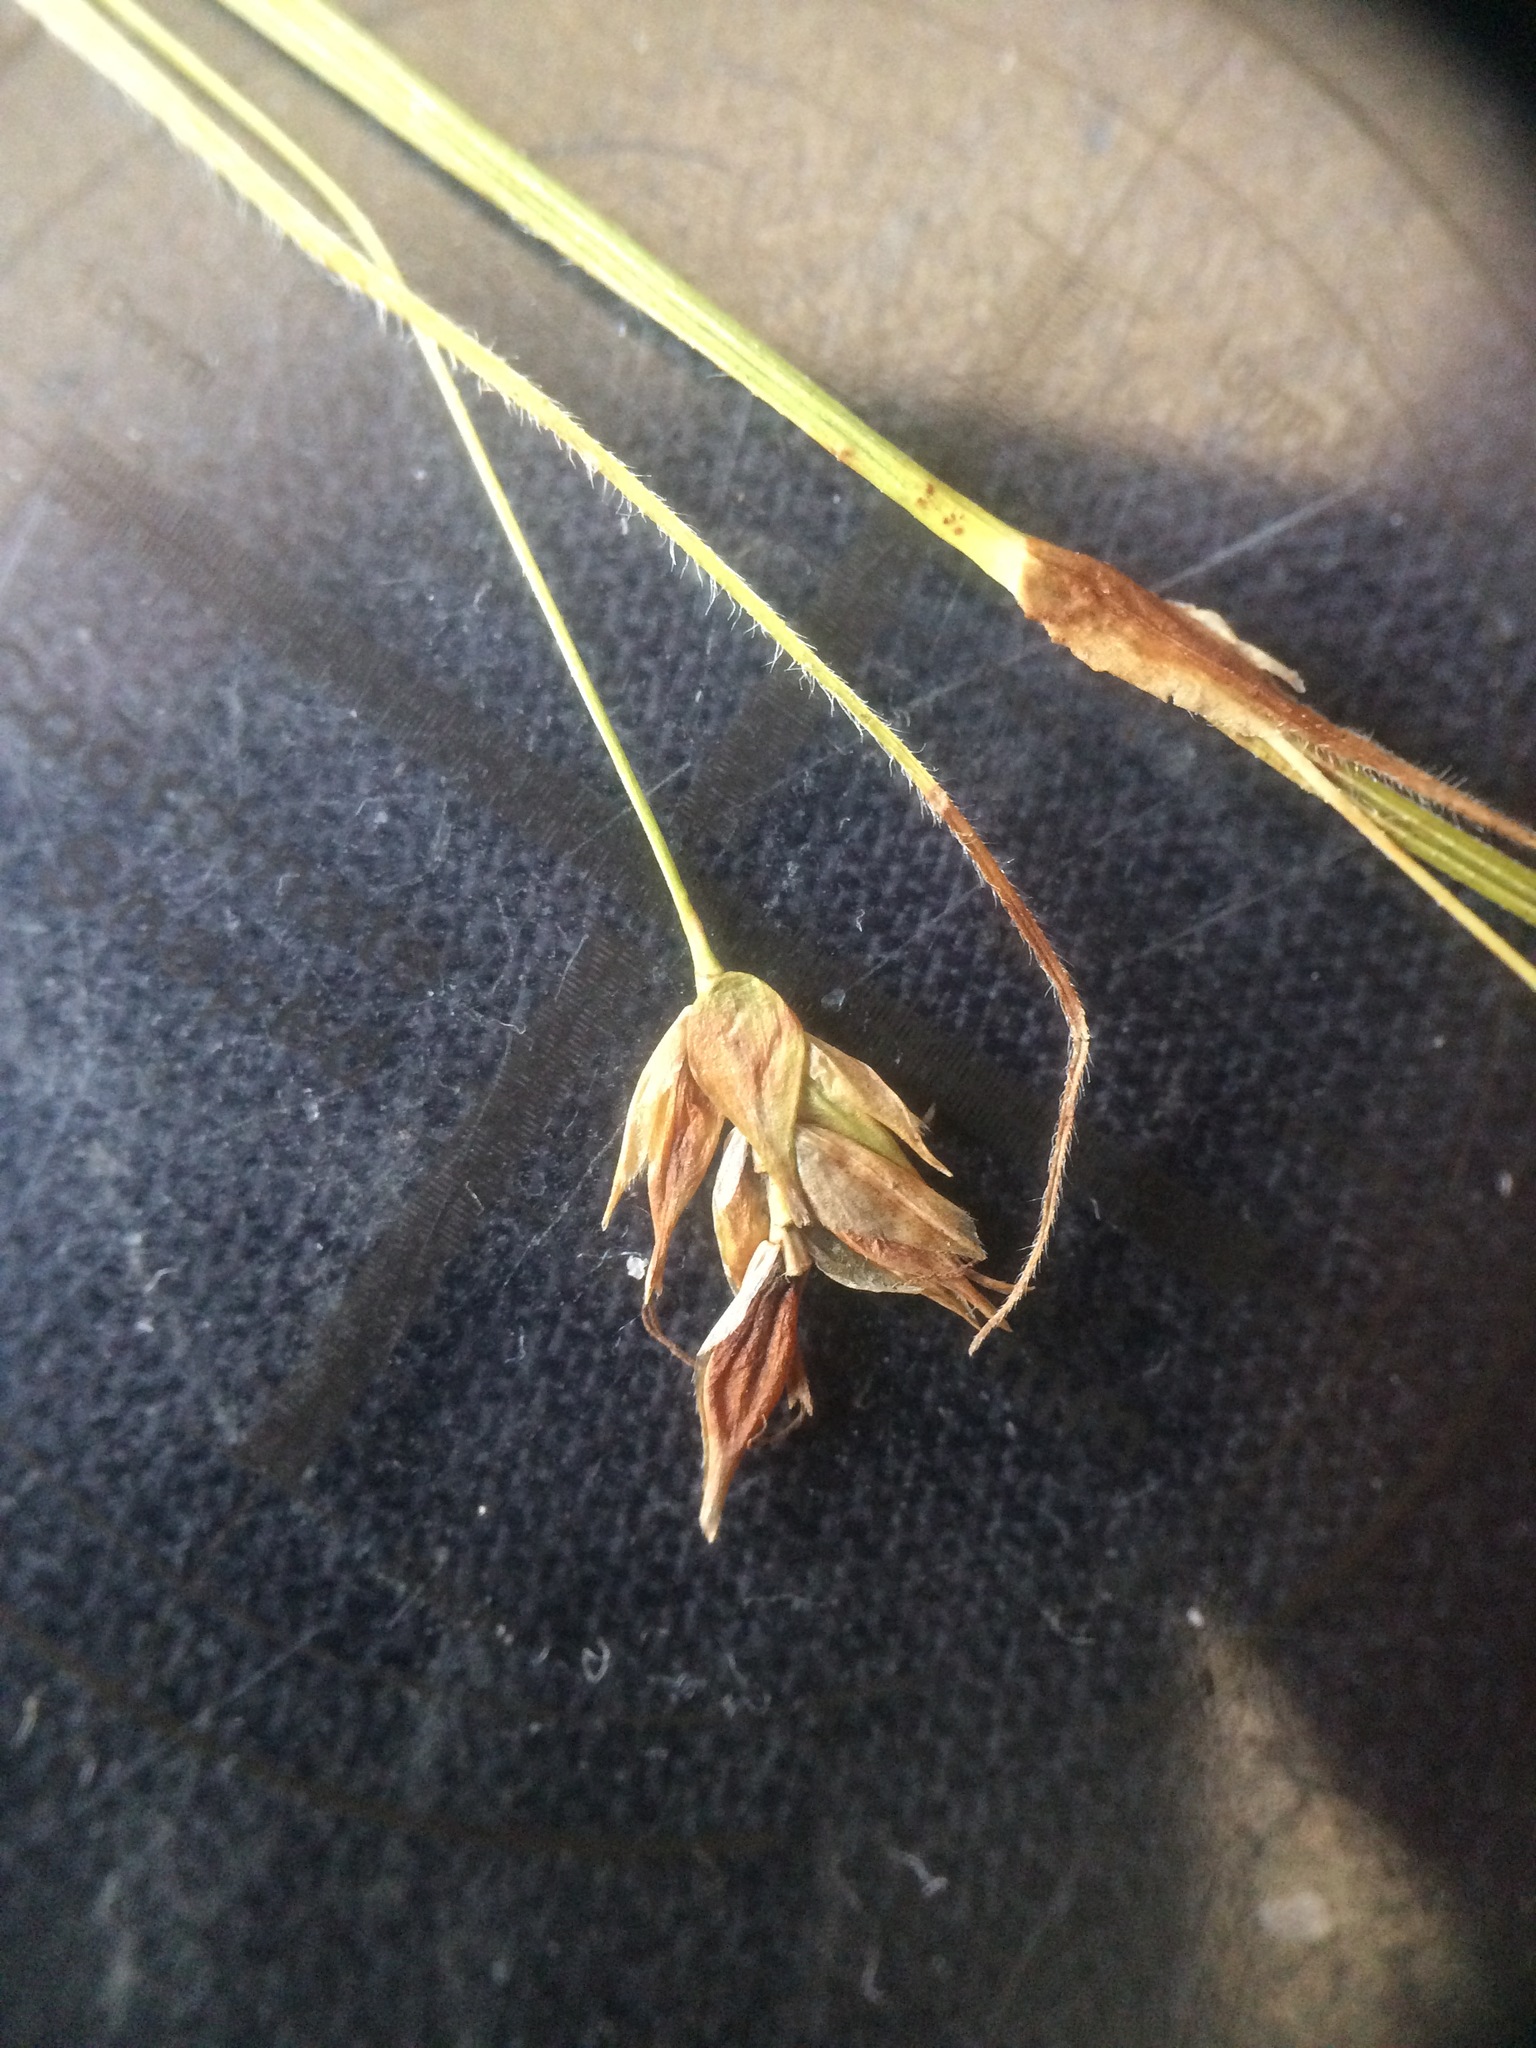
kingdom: Plantae
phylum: Tracheophyta
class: Liliopsida
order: Poales
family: Cyperaceae
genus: Carex
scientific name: Carex castanea
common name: Chestnut sedge
